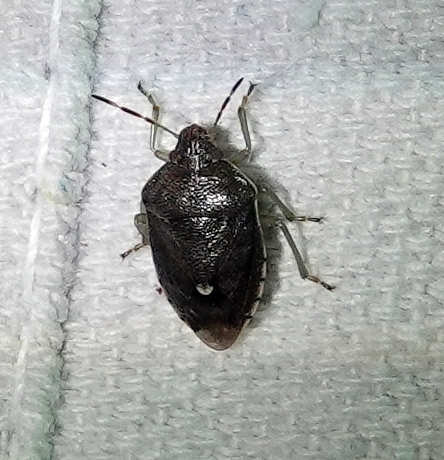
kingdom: Animalia
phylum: Arthropoda
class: Insecta
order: Hemiptera
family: Pentatomidae
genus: Banasa
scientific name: Banasa sordida
